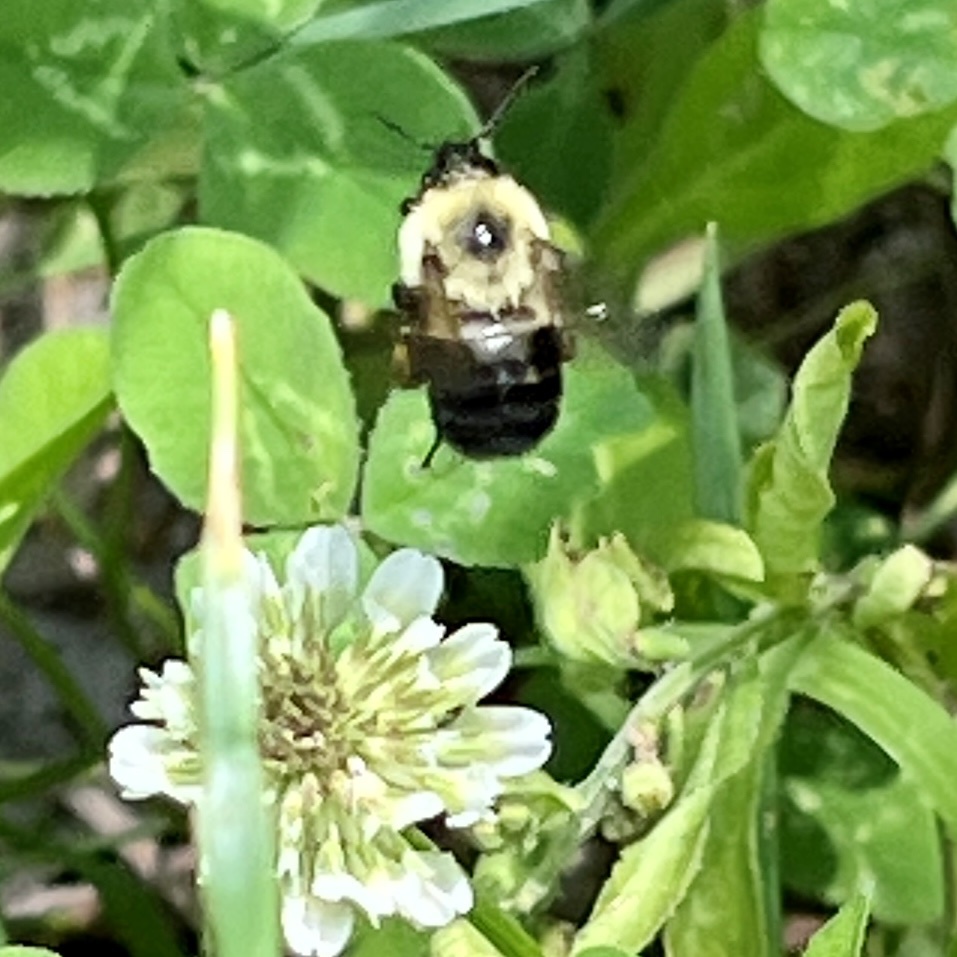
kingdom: Animalia
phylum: Arthropoda
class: Insecta
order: Hymenoptera
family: Apidae
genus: Bombus
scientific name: Bombus bimaculatus
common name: Two-spotted bumble bee
